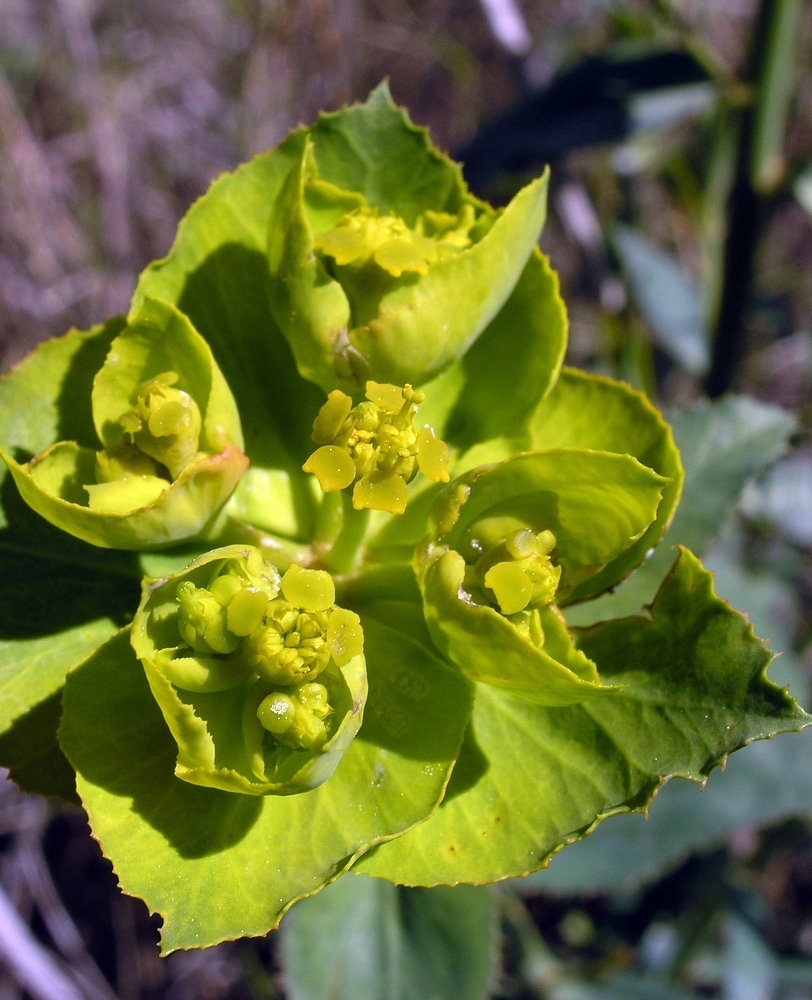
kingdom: Plantae
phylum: Tracheophyta
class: Magnoliopsida
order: Malpighiales
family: Euphorbiaceae
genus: Euphorbia
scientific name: Euphorbia serrata
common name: Serrate spurge
